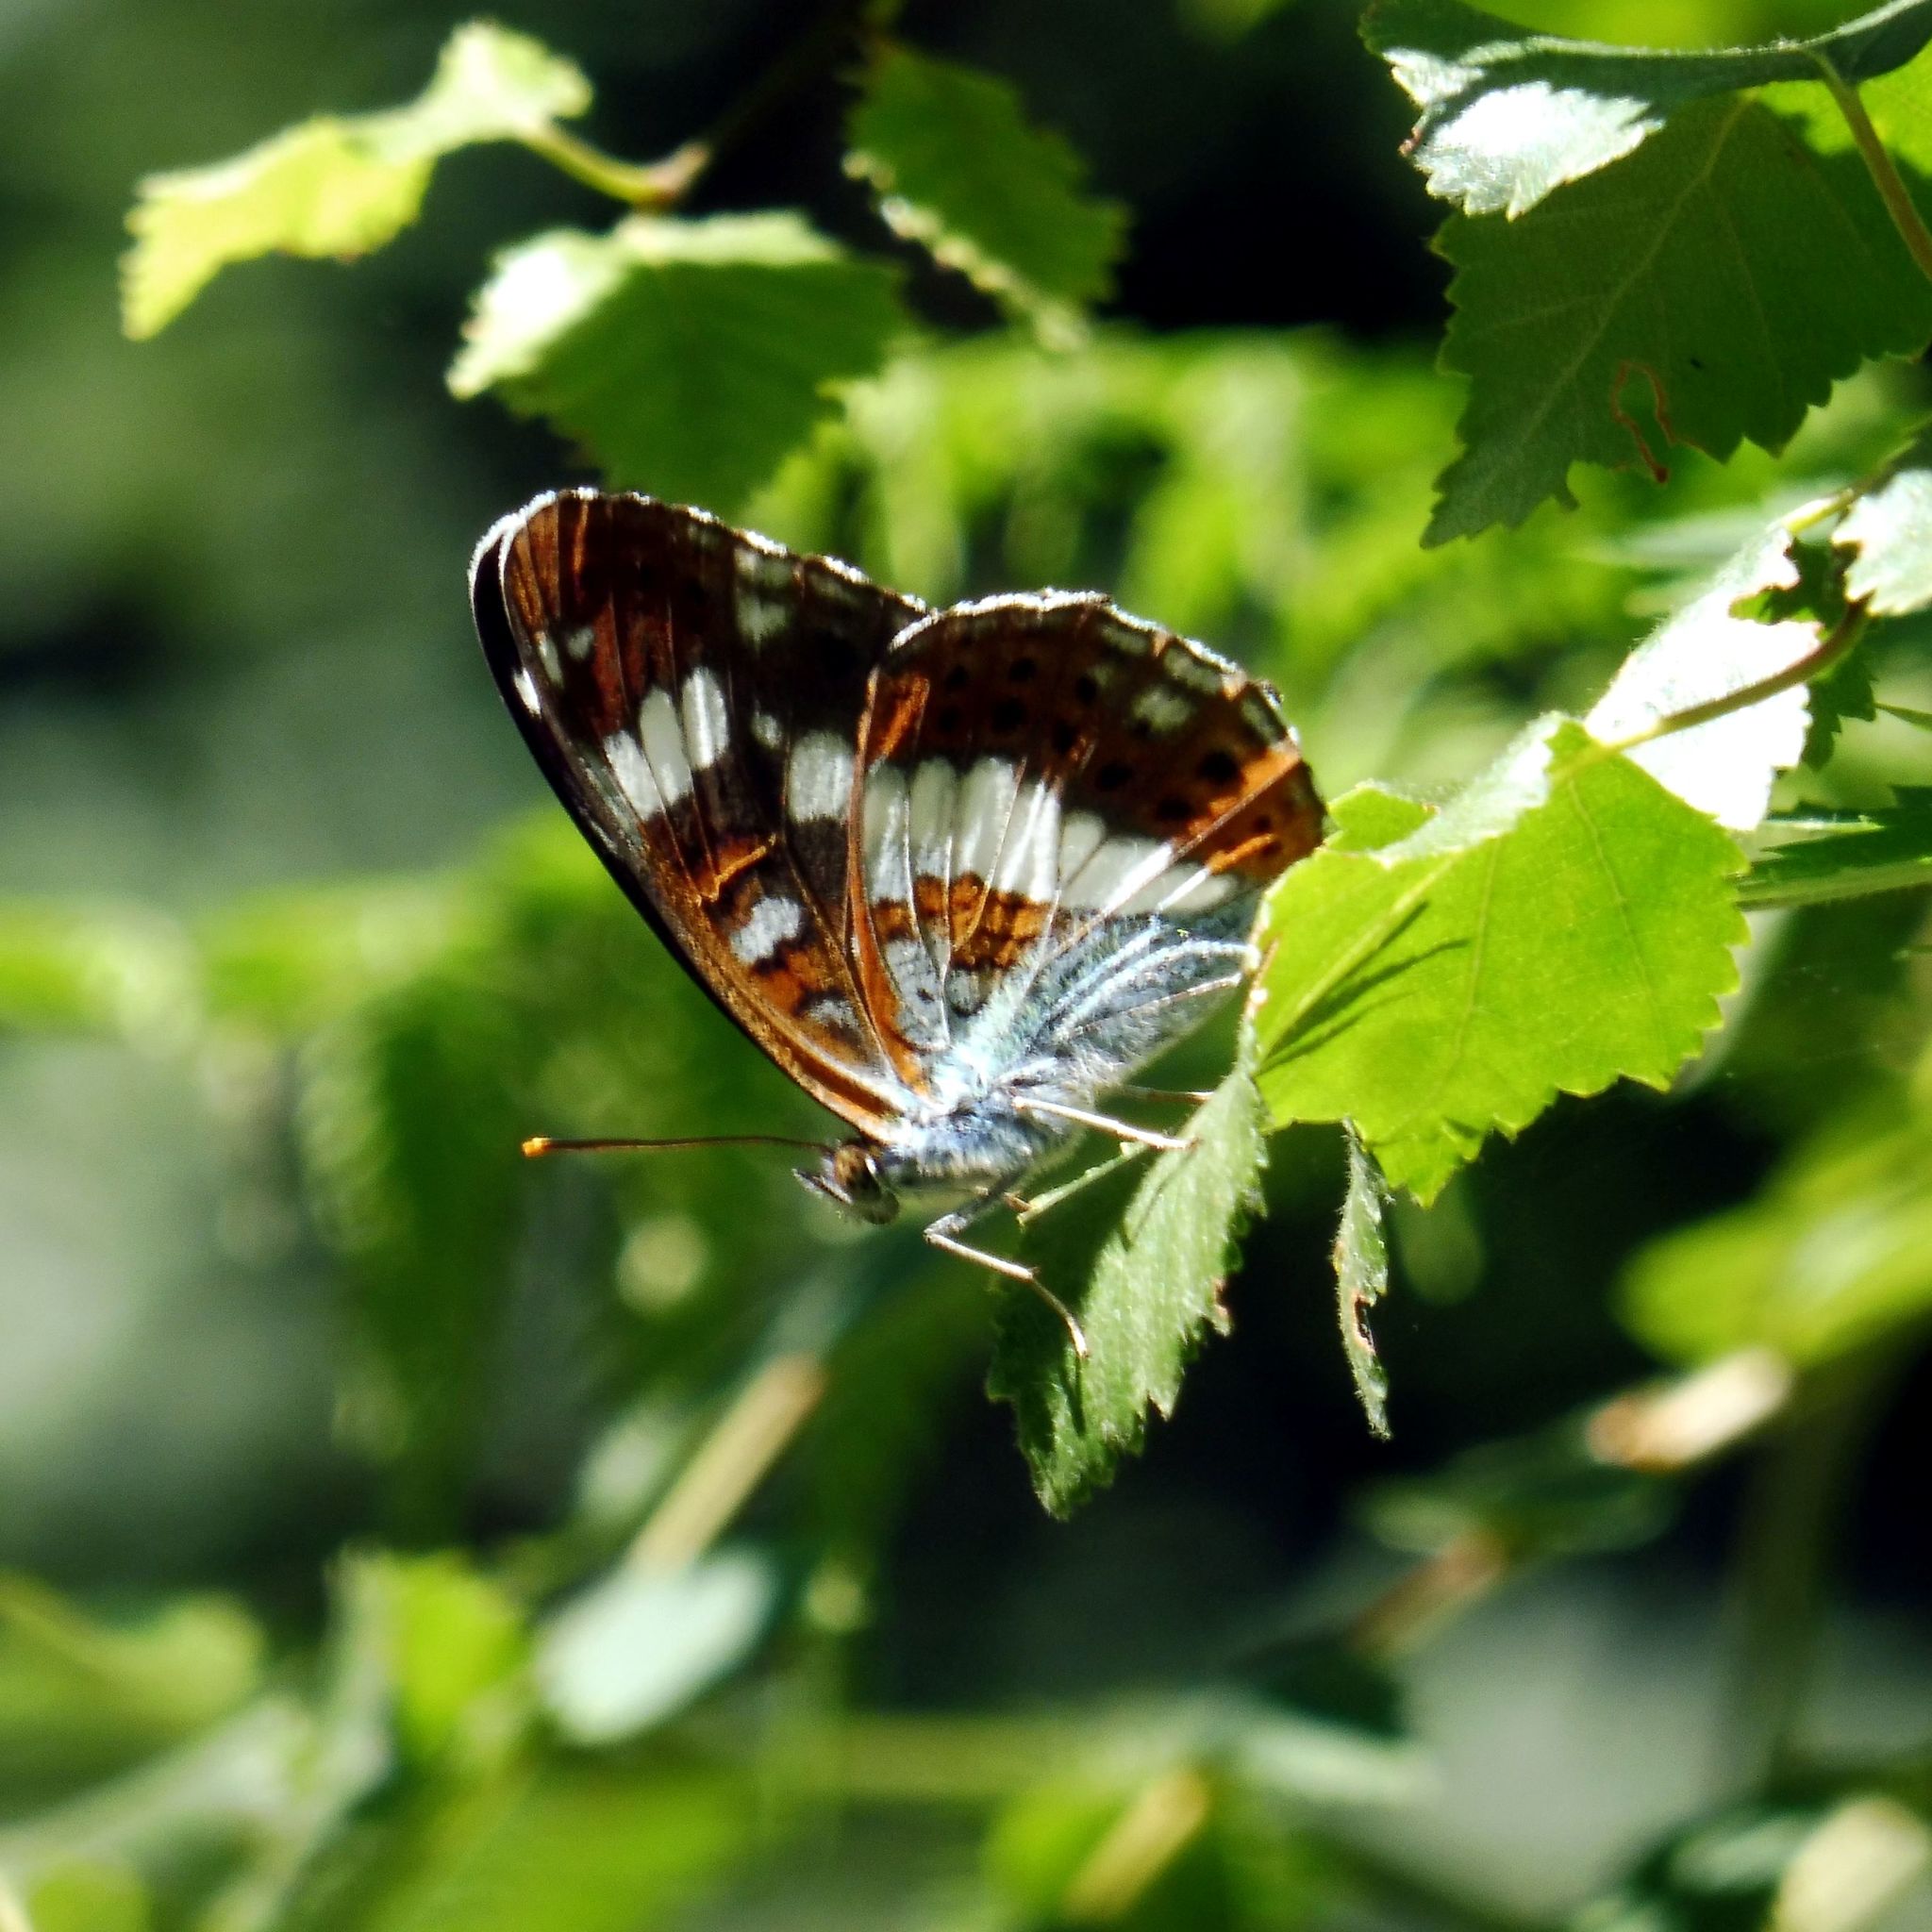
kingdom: Animalia
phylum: Arthropoda
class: Insecta
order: Lepidoptera
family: Nymphalidae
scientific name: Nymphalidae
